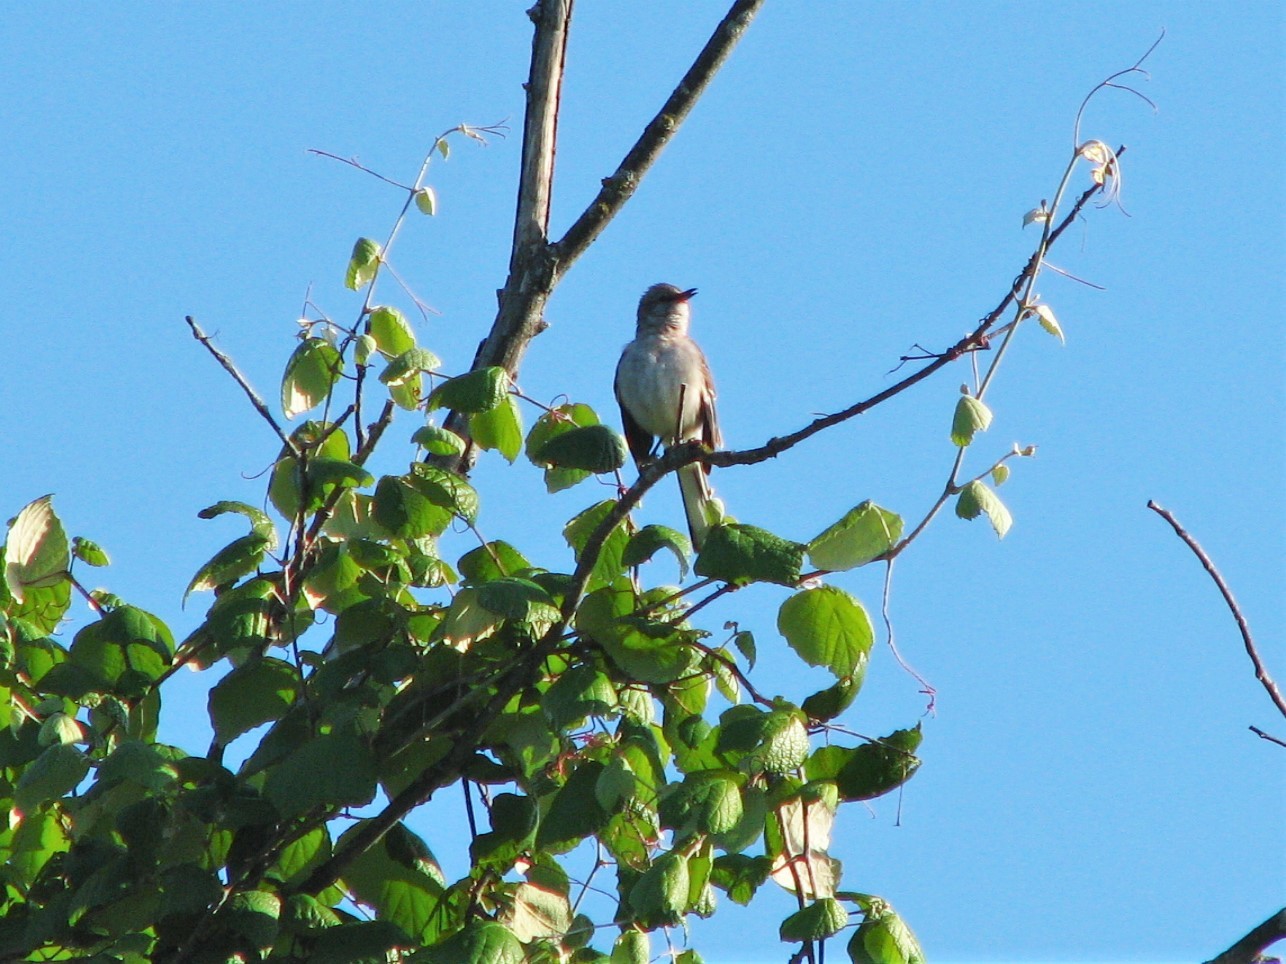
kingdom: Animalia
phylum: Chordata
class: Aves
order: Passeriformes
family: Mimidae
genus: Mimus
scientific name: Mimus polyglottos
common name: Northern mockingbird
